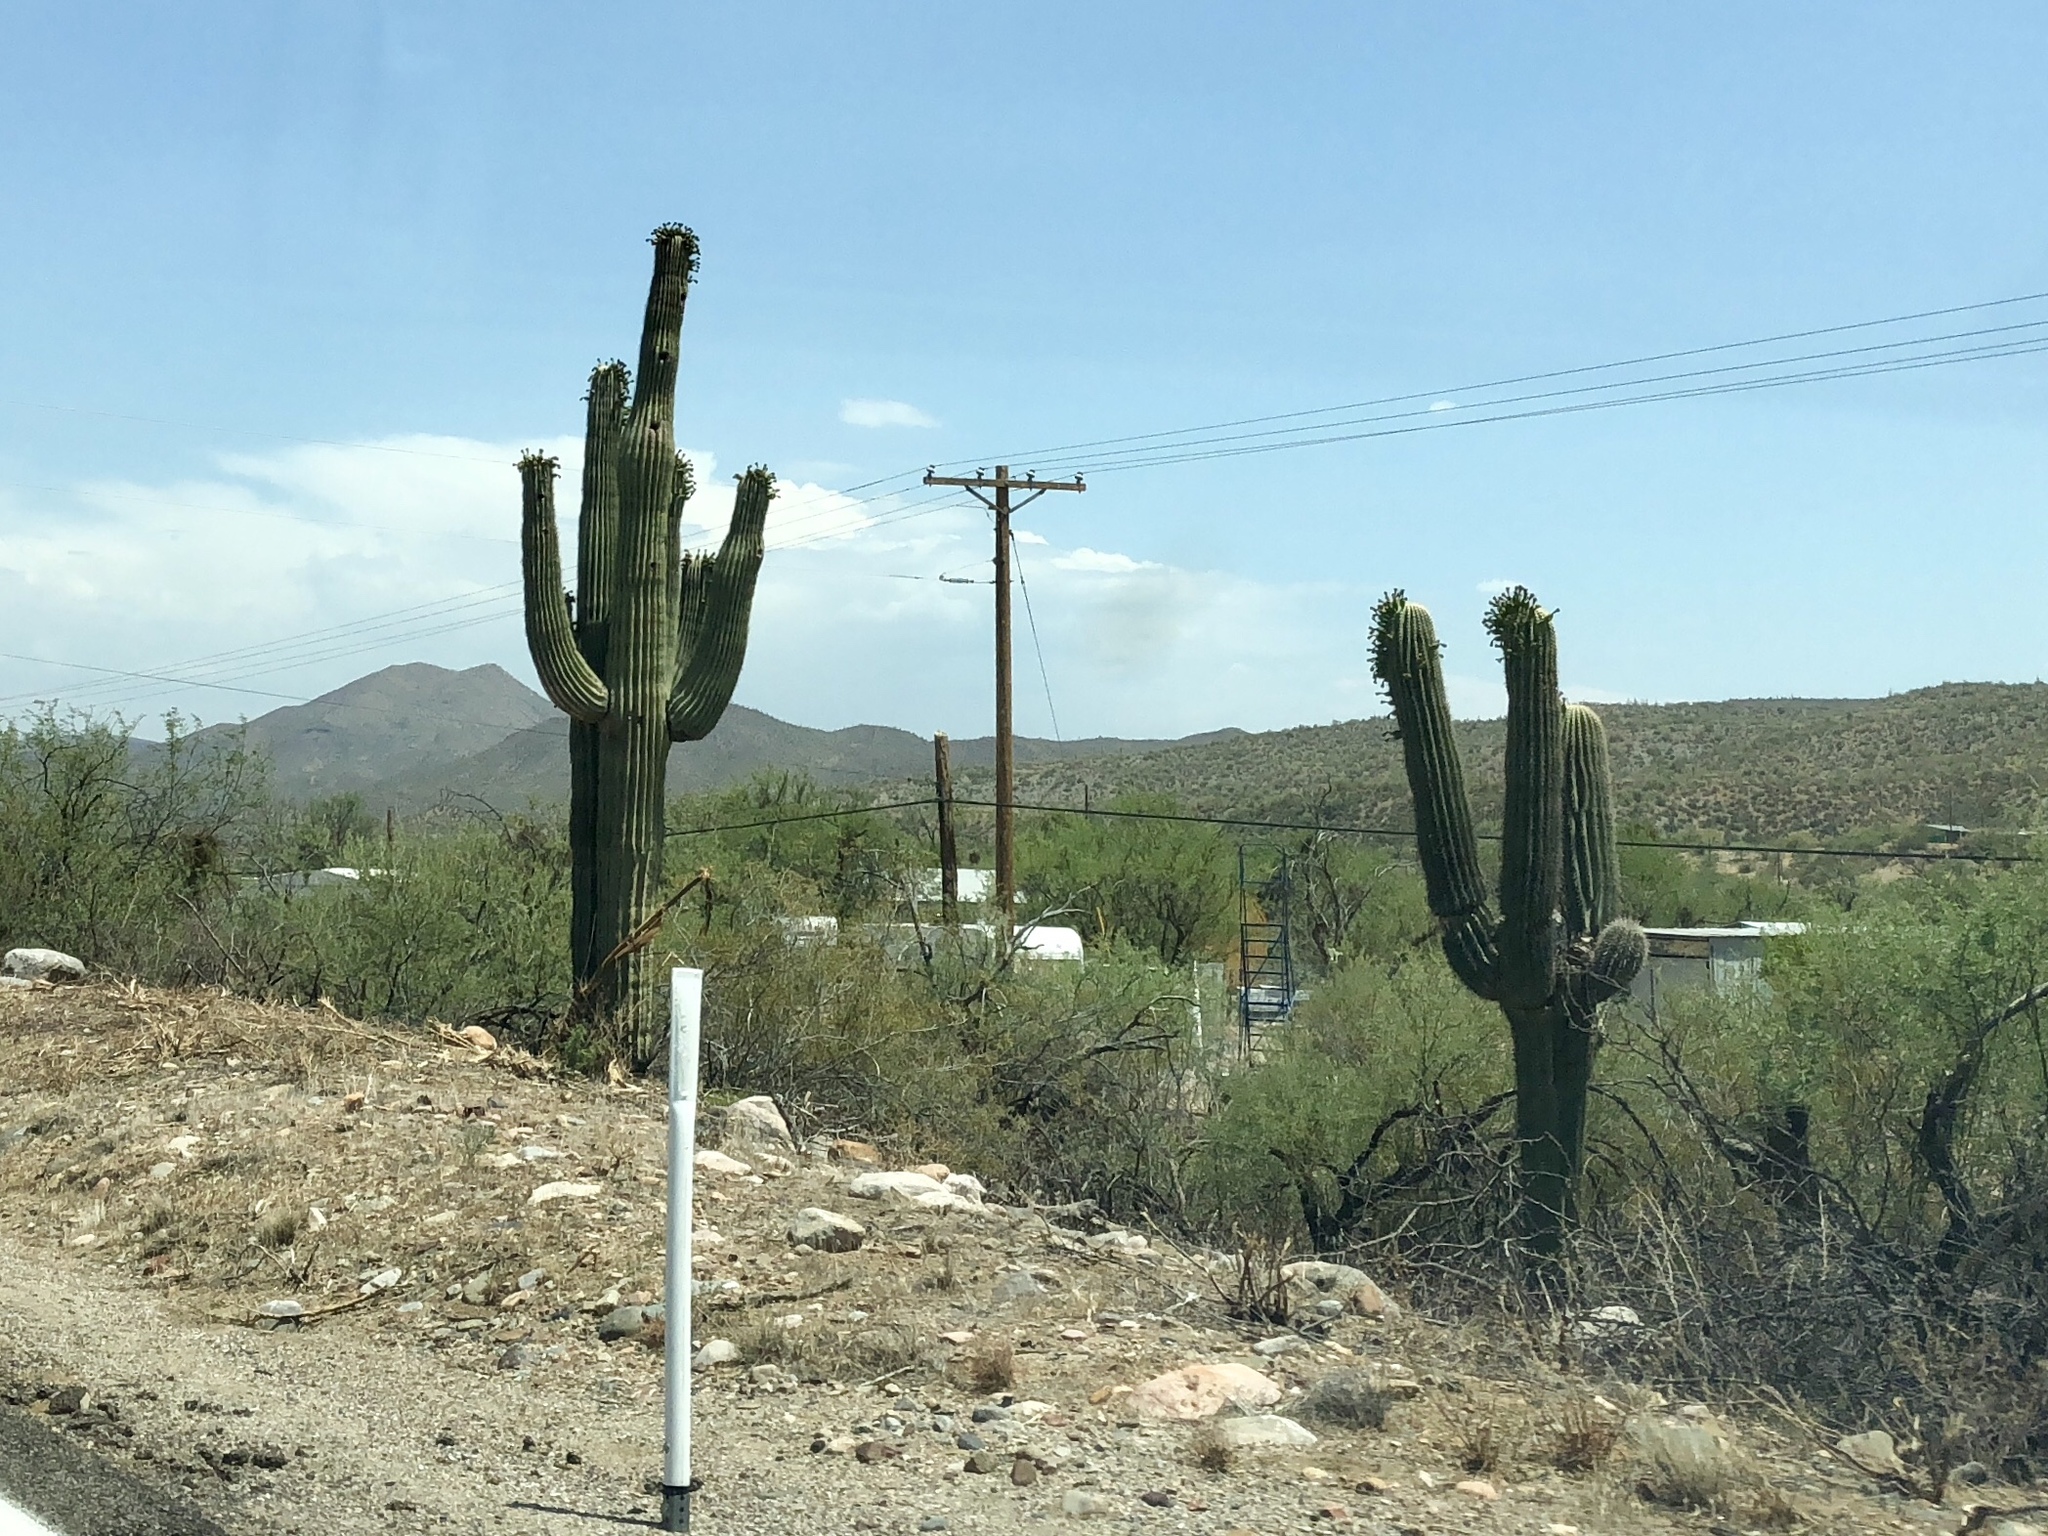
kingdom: Plantae
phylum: Tracheophyta
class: Magnoliopsida
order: Caryophyllales
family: Cactaceae
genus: Carnegiea
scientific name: Carnegiea gigantea
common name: Saguaro
